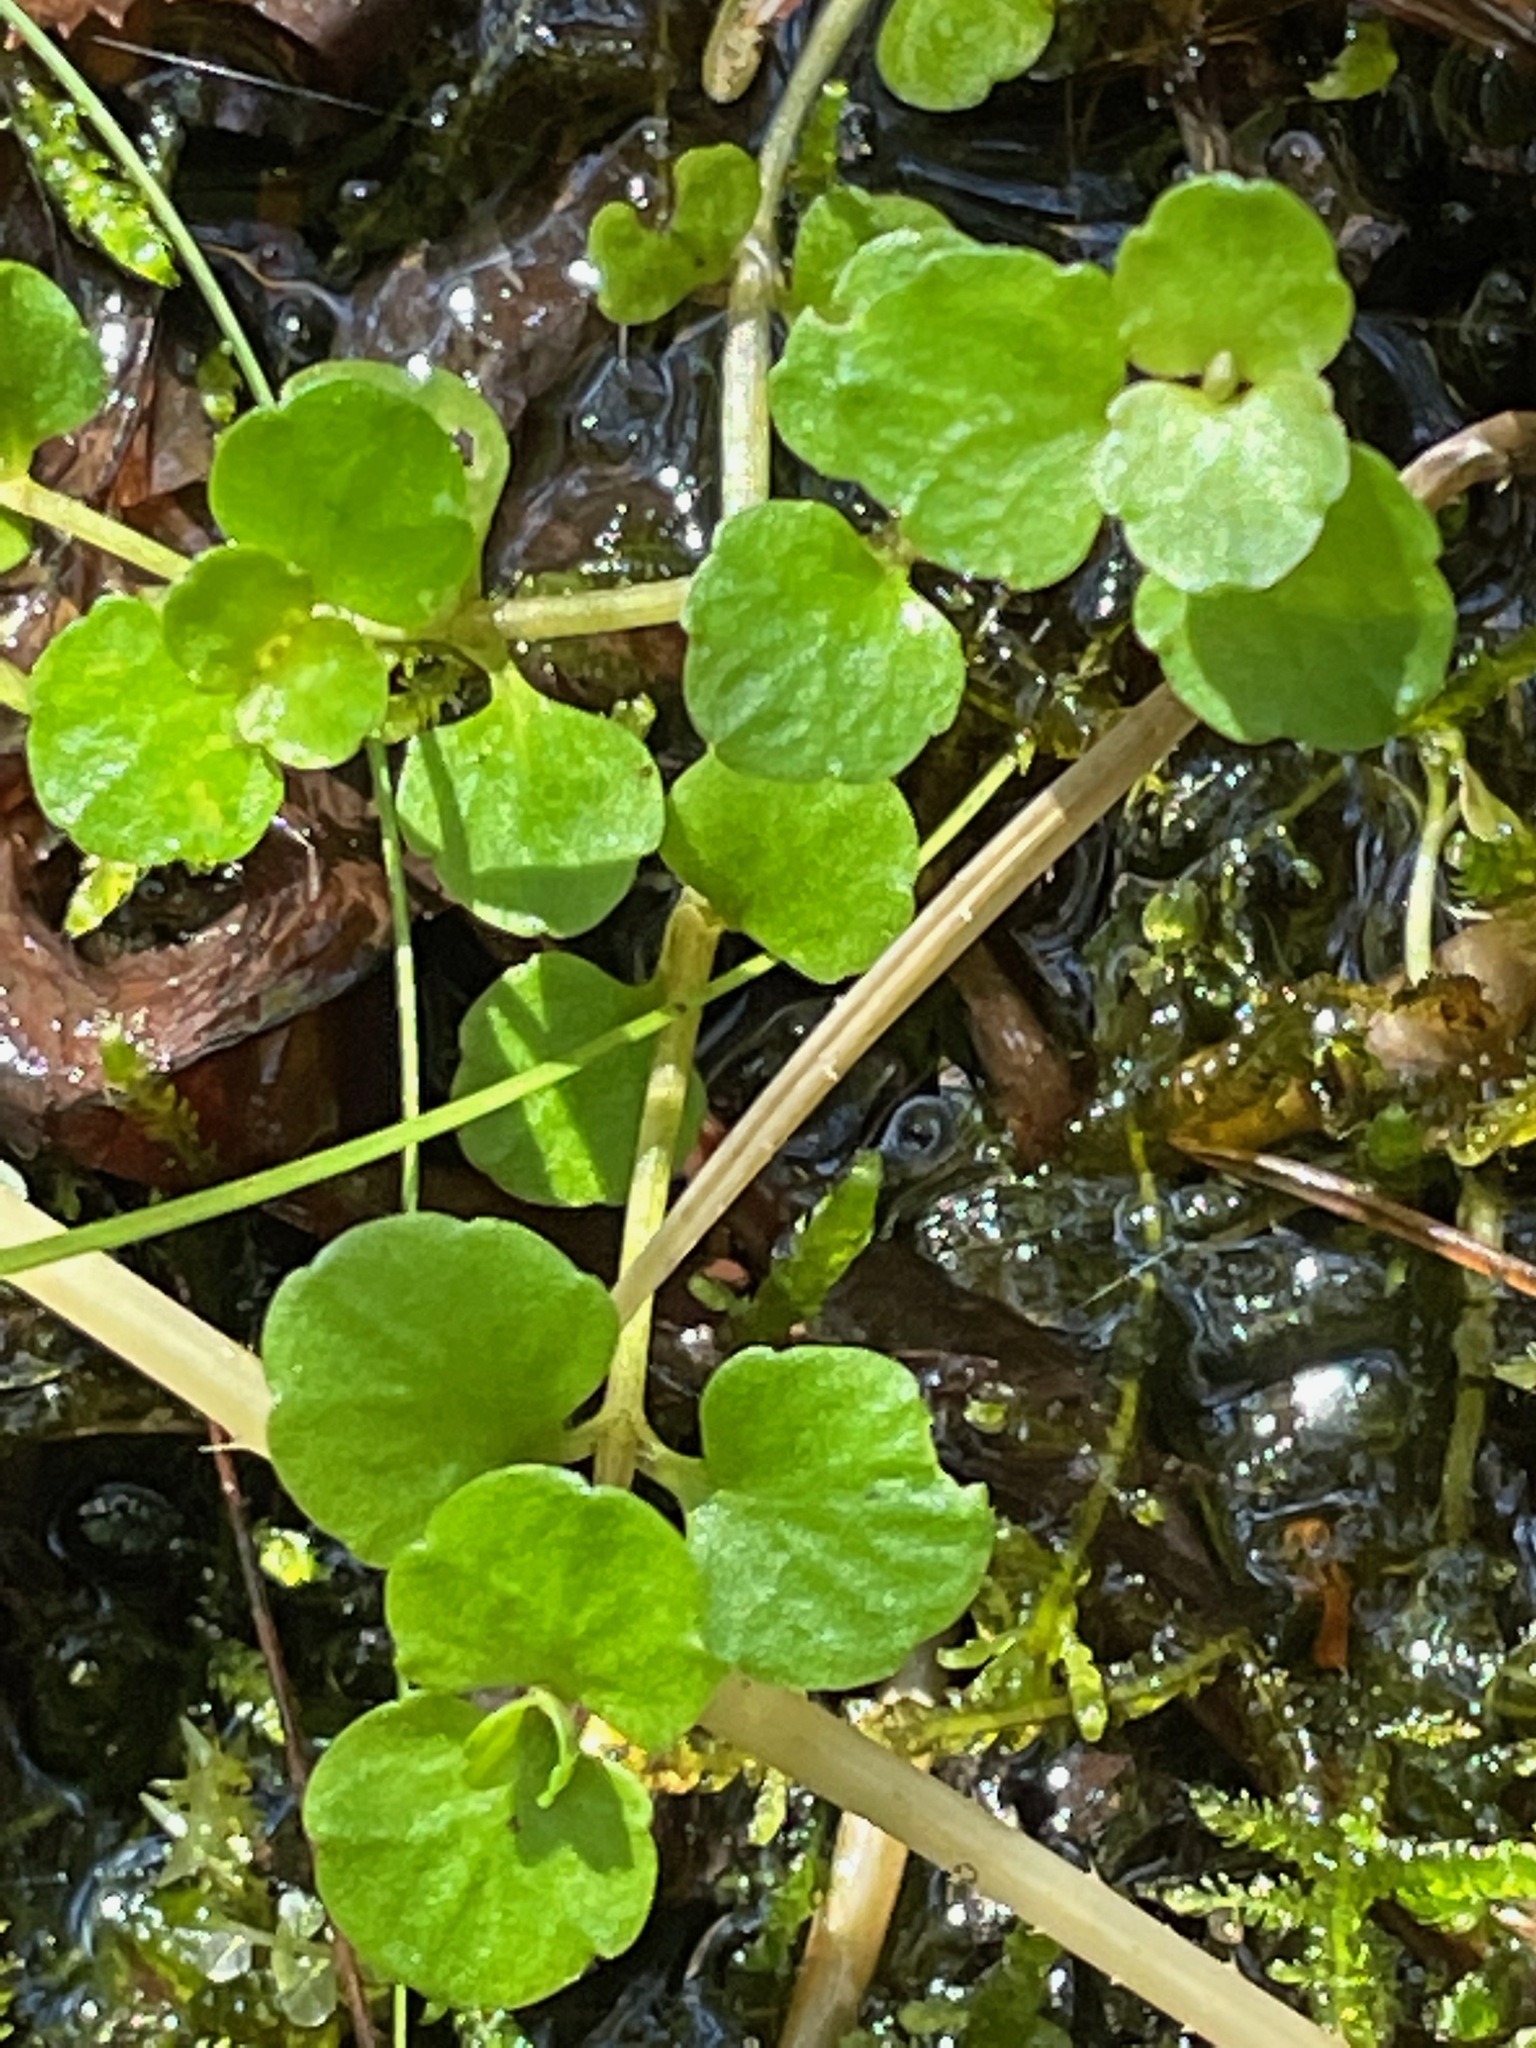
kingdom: Plantae
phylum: Tracheophyta
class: Magnoliopsida
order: Saxifragales
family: Saxifragaceae
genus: Chrysosplenium
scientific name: Chrysosplenium americanum
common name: American golden-saxifrage
